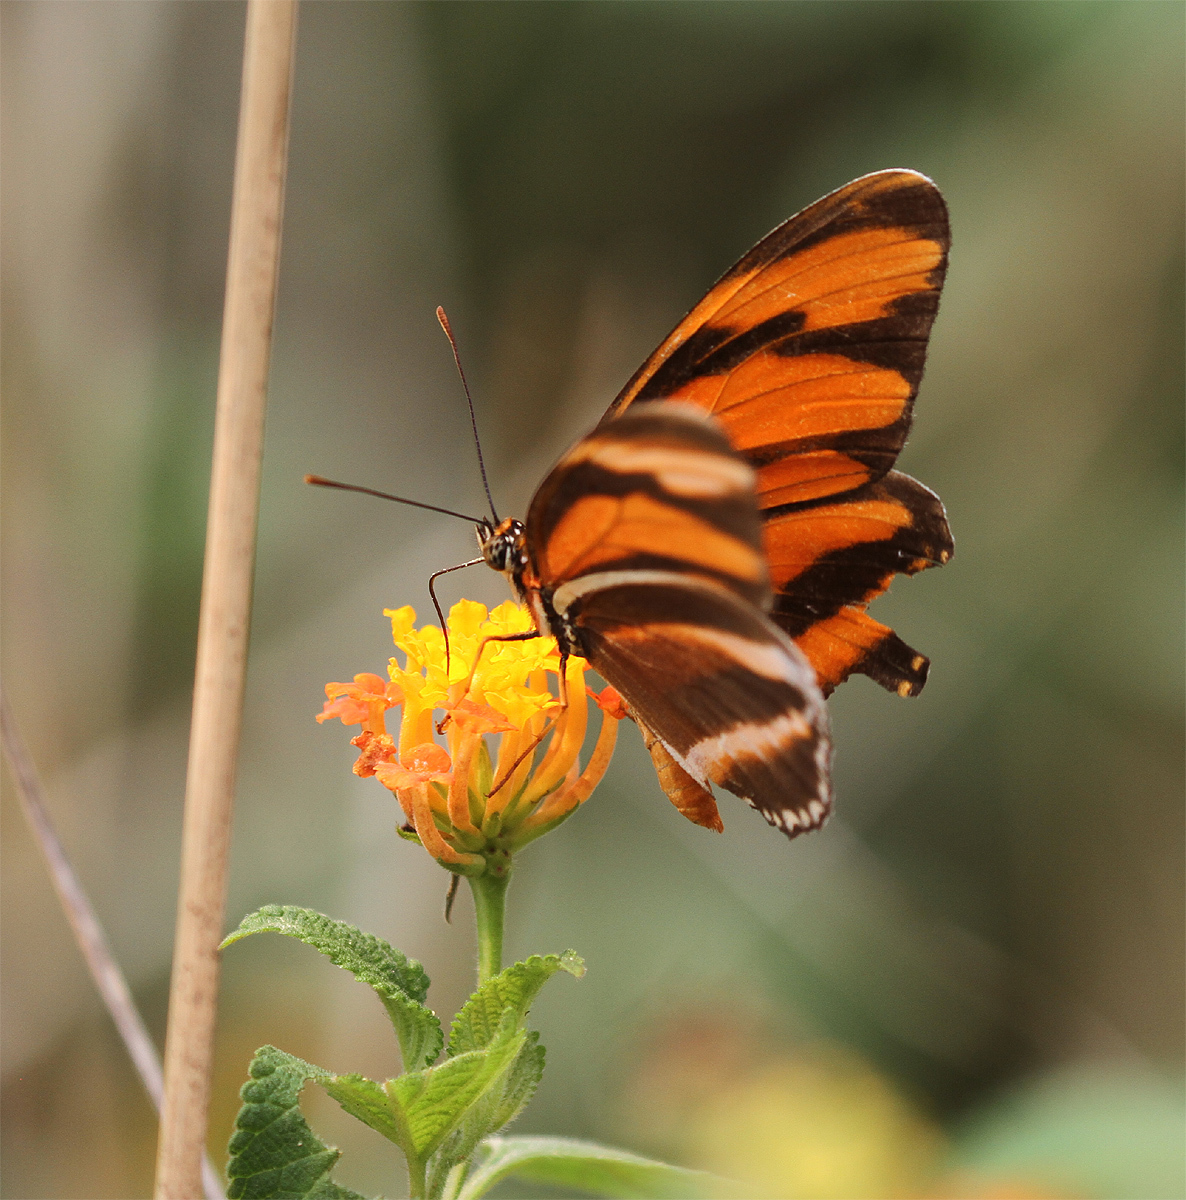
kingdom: Animalia
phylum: Arthropoda
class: Insecta
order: Lepidoptera
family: Nymphalidae
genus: Dryadula
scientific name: Dryadula phaetusa
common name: Banded orange heliconian
